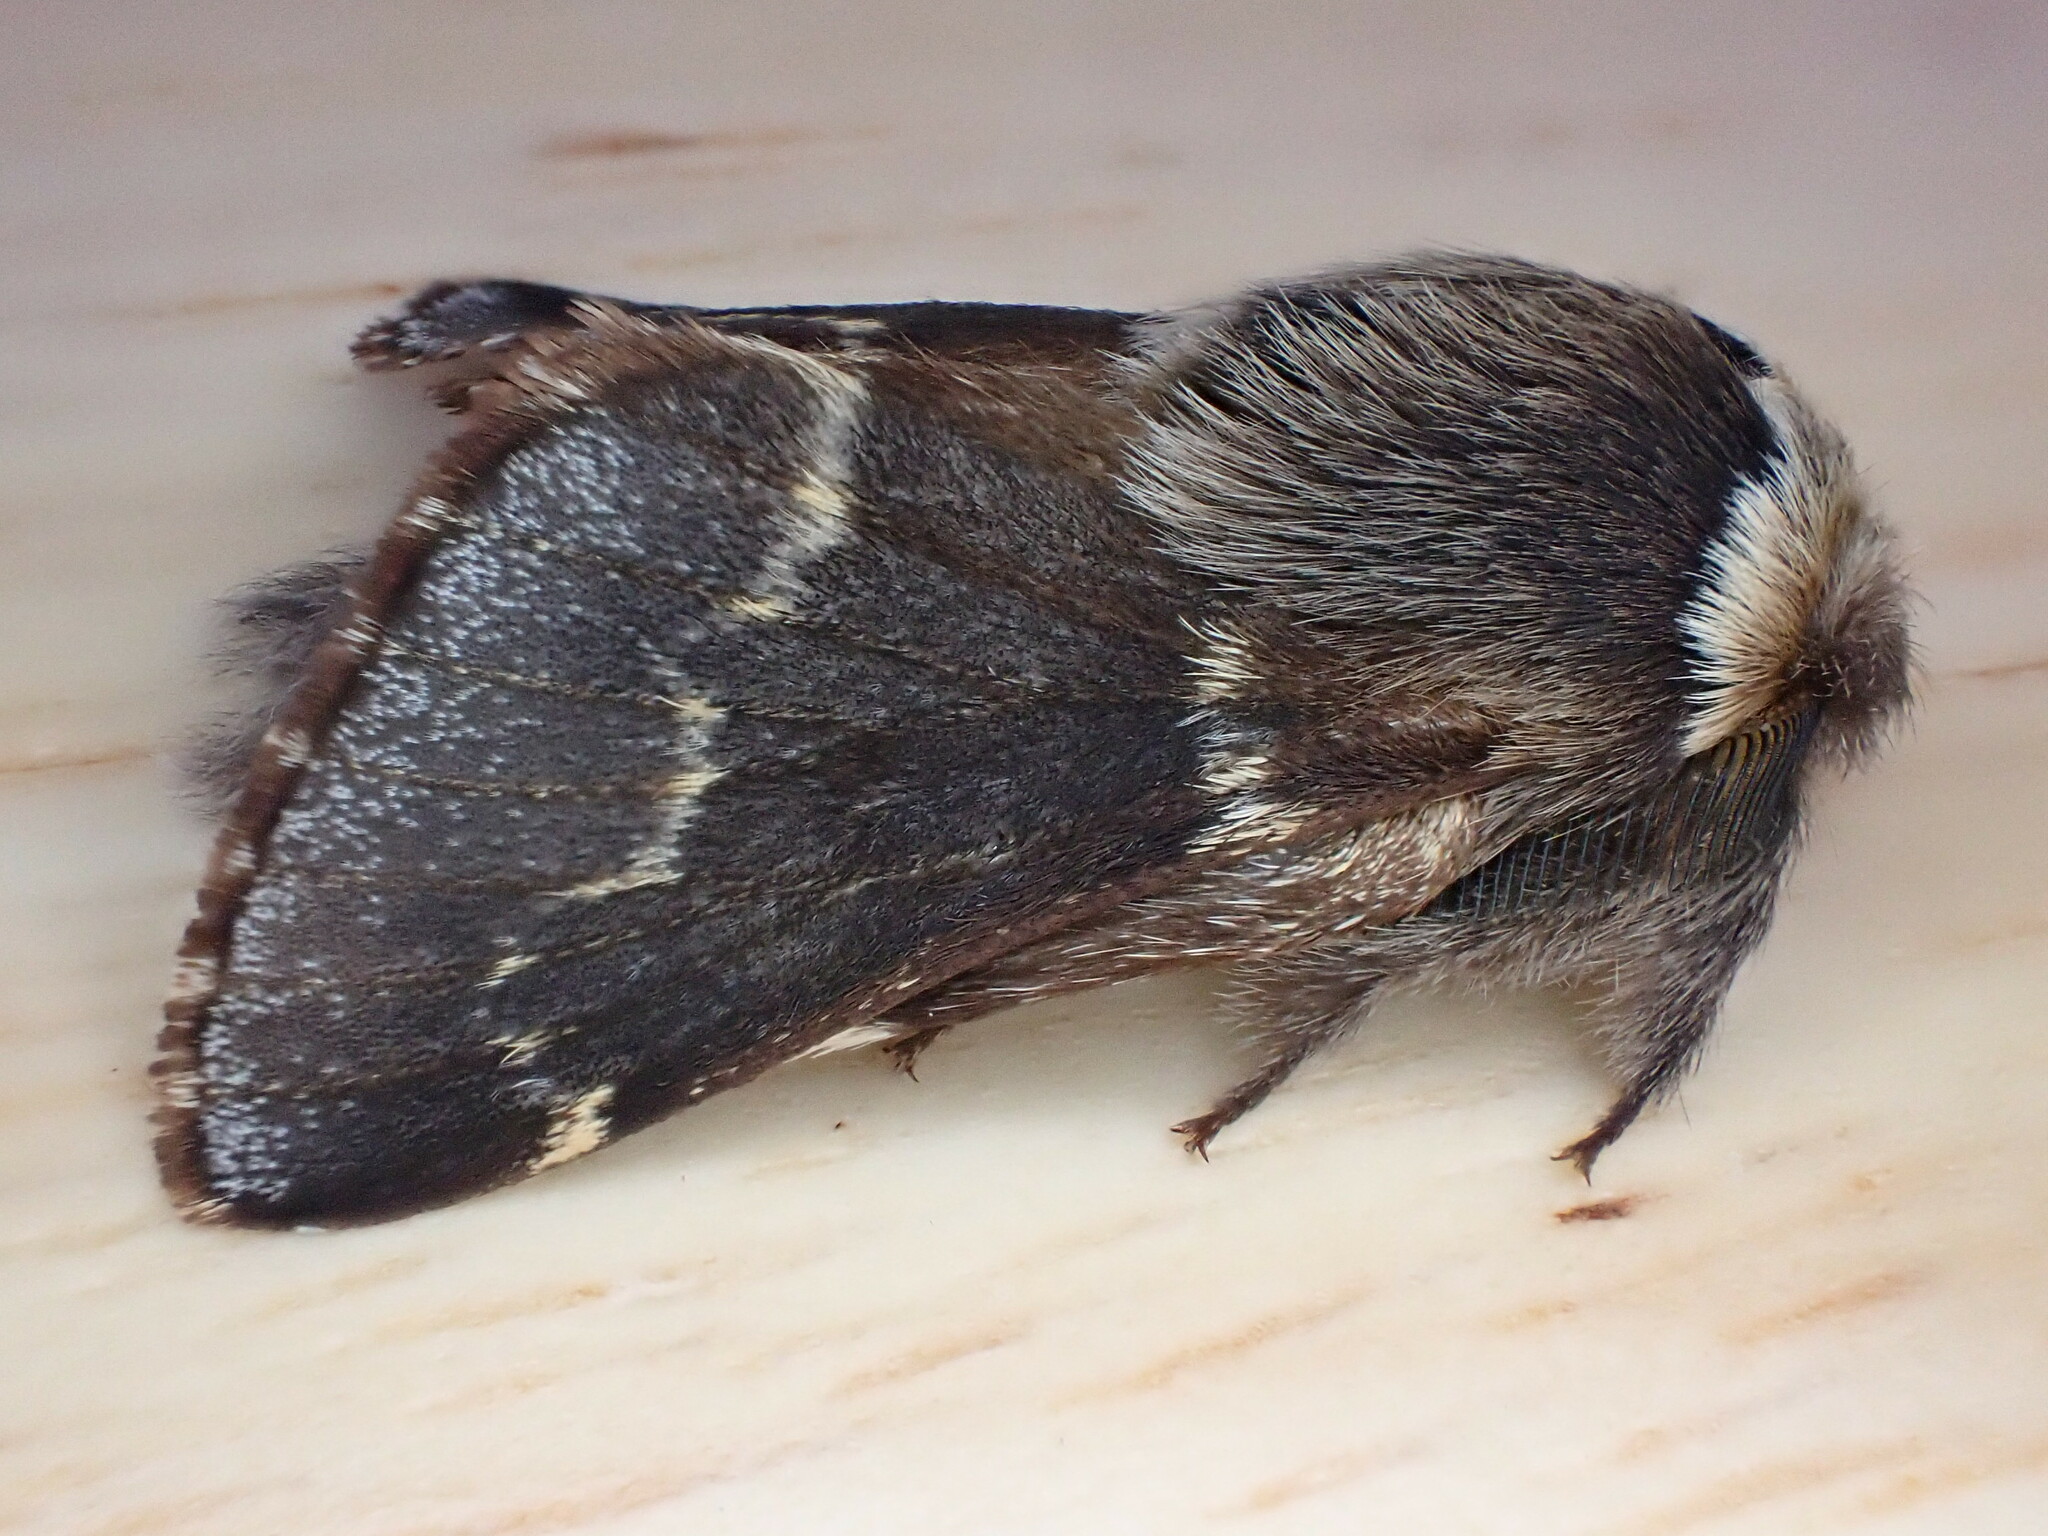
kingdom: Animalia
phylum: Arthropoda
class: Insecta
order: Lepidoptera
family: Lasiocampidae
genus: Poecilocampa
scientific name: Poecilocampa populi
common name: December moth
